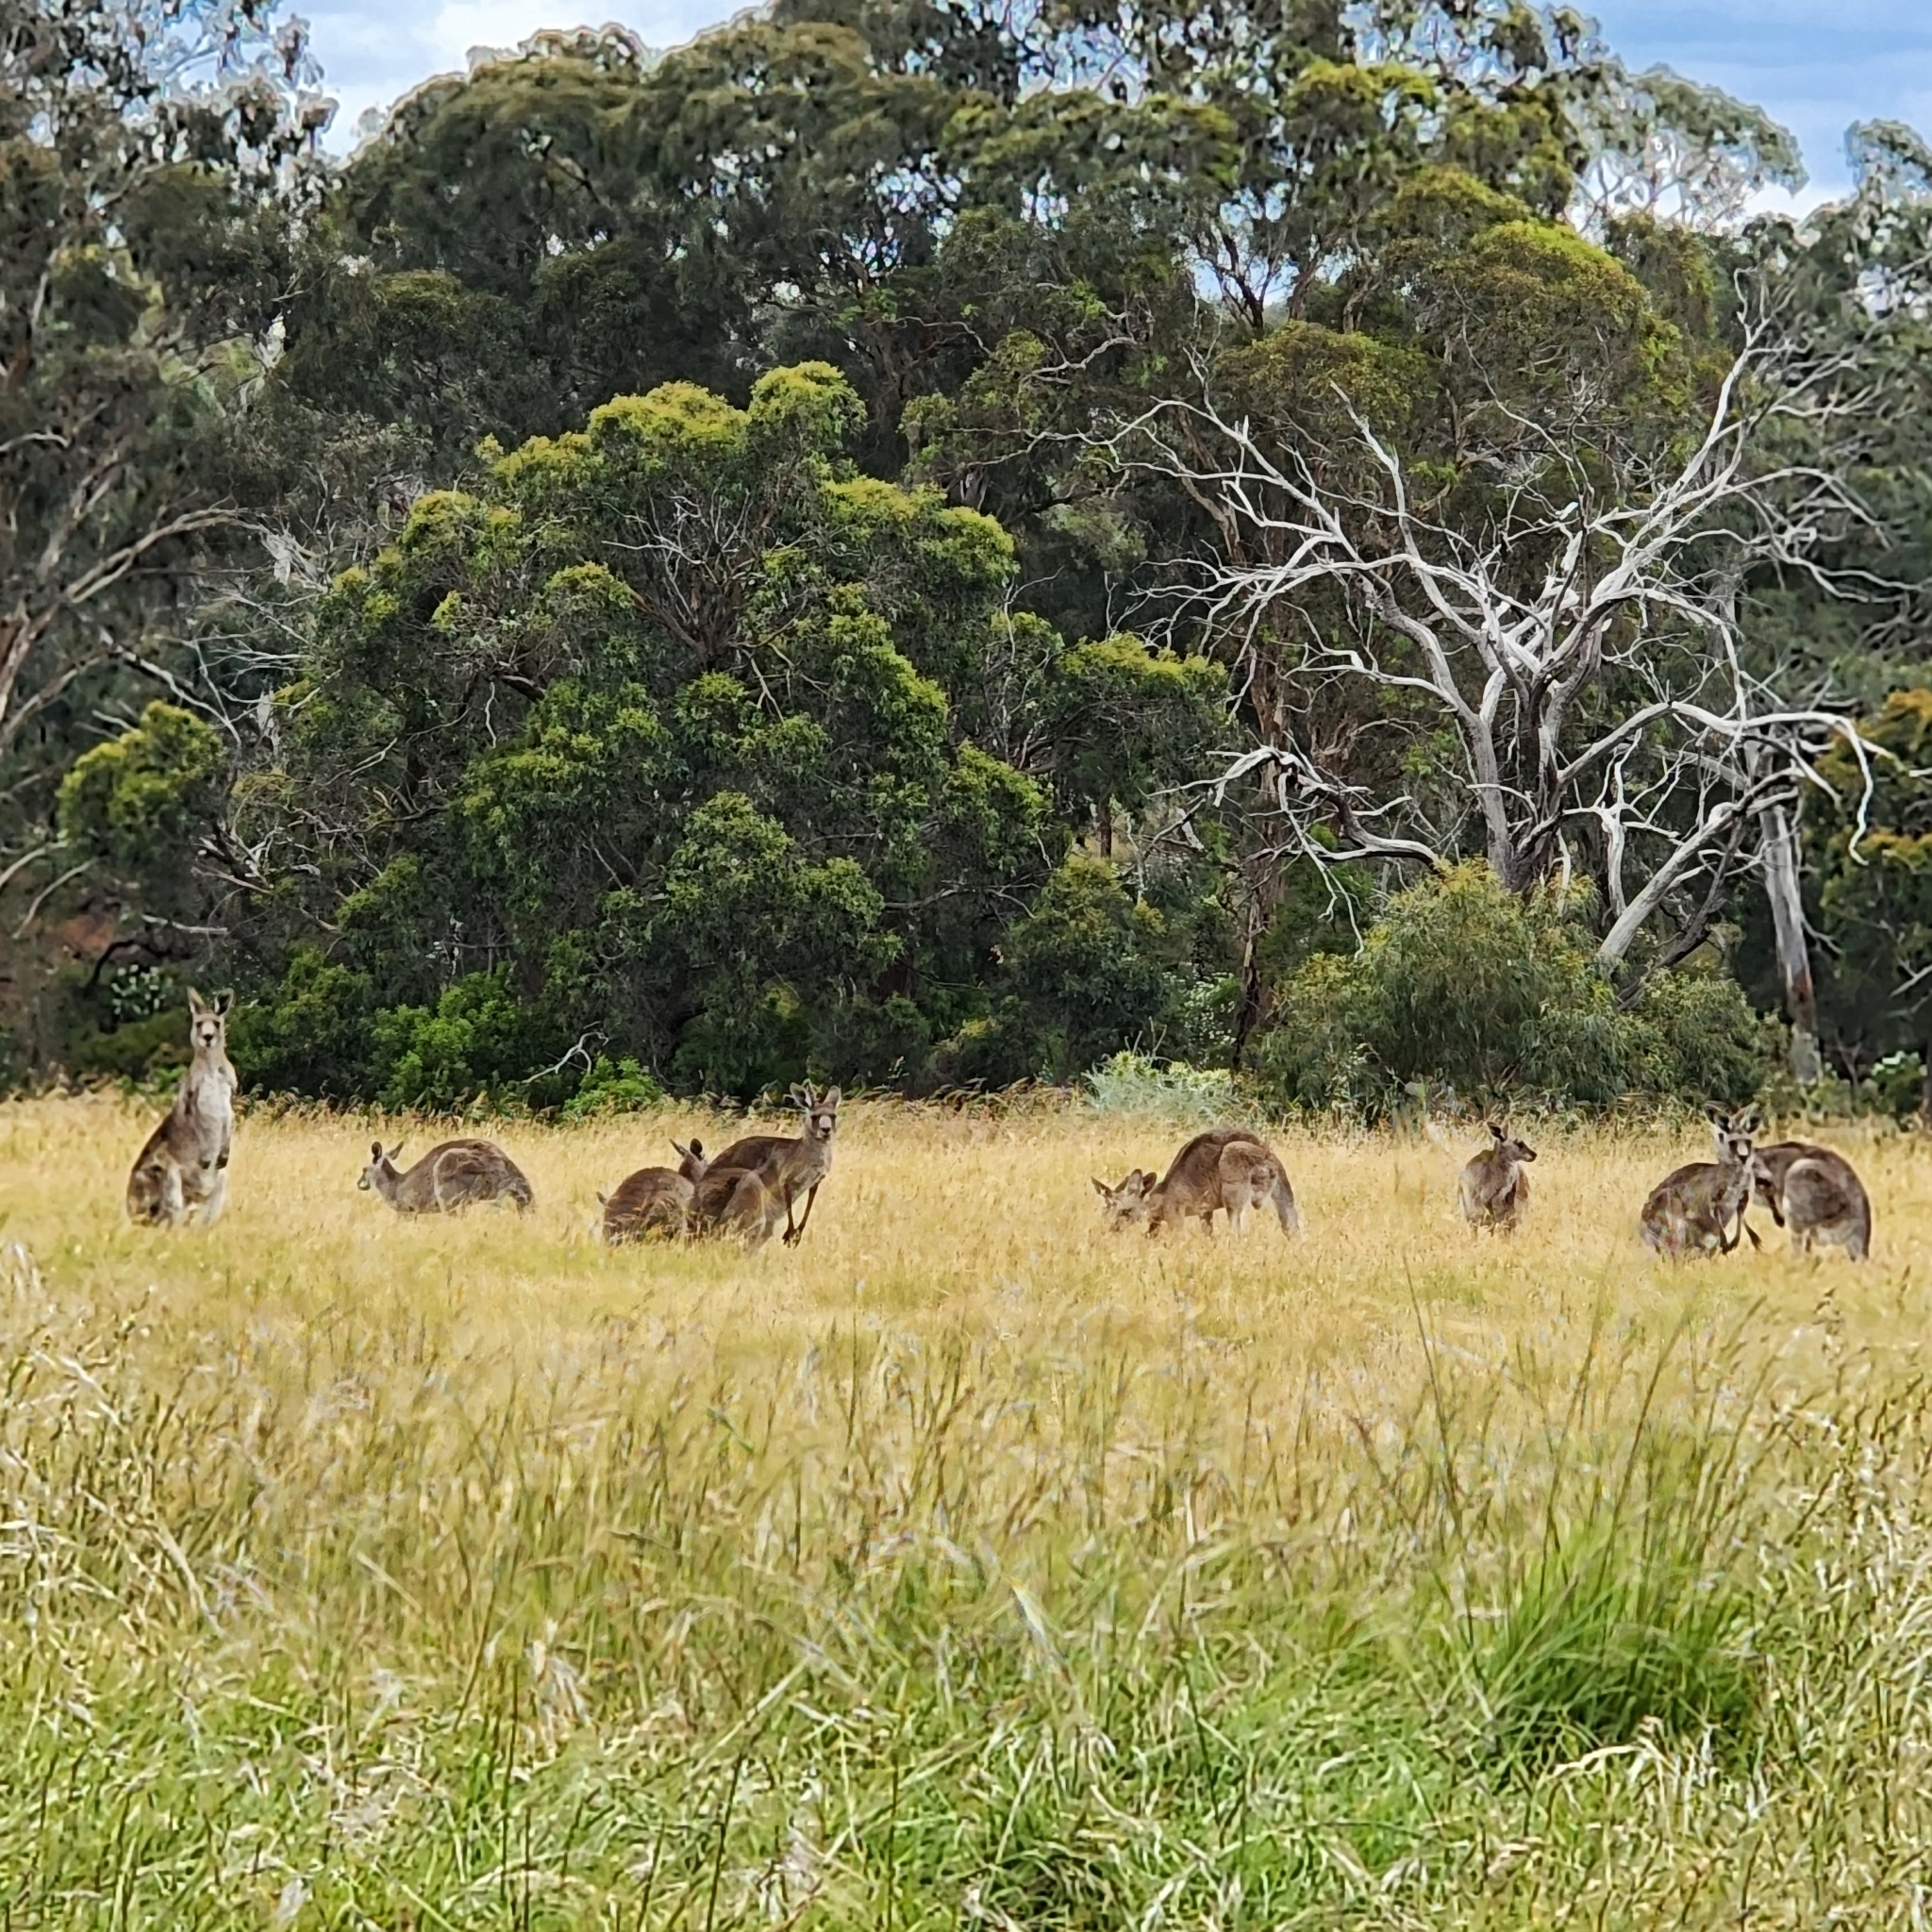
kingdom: Animalia
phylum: Chordata
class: Mammalia
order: Diprotodontia
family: Macropodidae
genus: Macropus
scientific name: Macropus giganteus
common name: Eastern grey kangaroo
